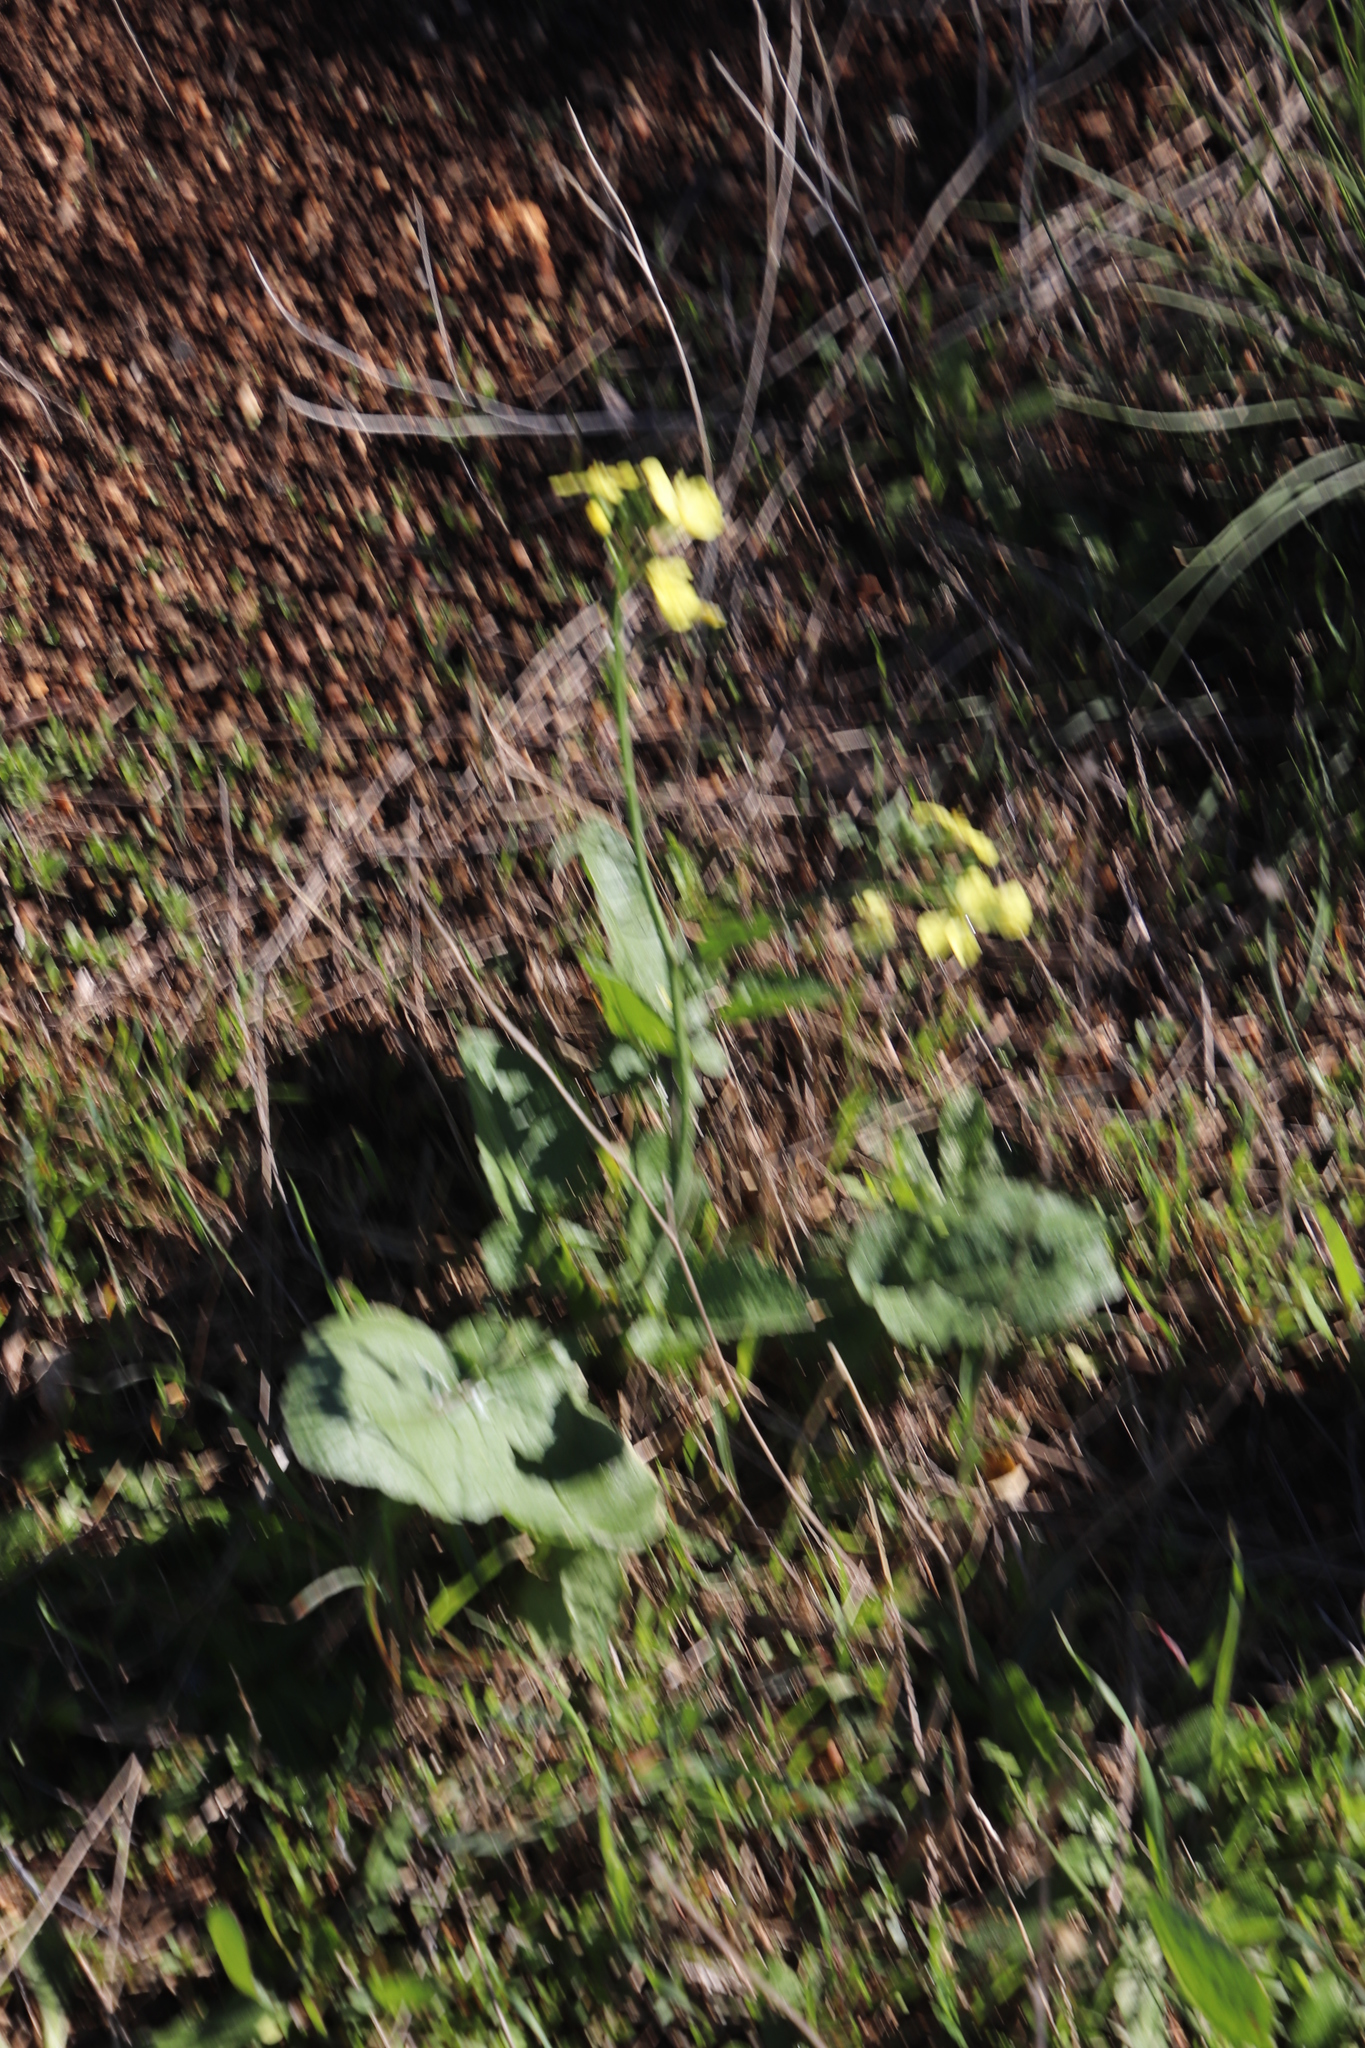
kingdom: Plantae
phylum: Tracheophyta
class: Magnoliopsida
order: Brassicales
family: Brassicaceae
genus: Raphanus
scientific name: Raphanus raphanistrum
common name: Wild radish
